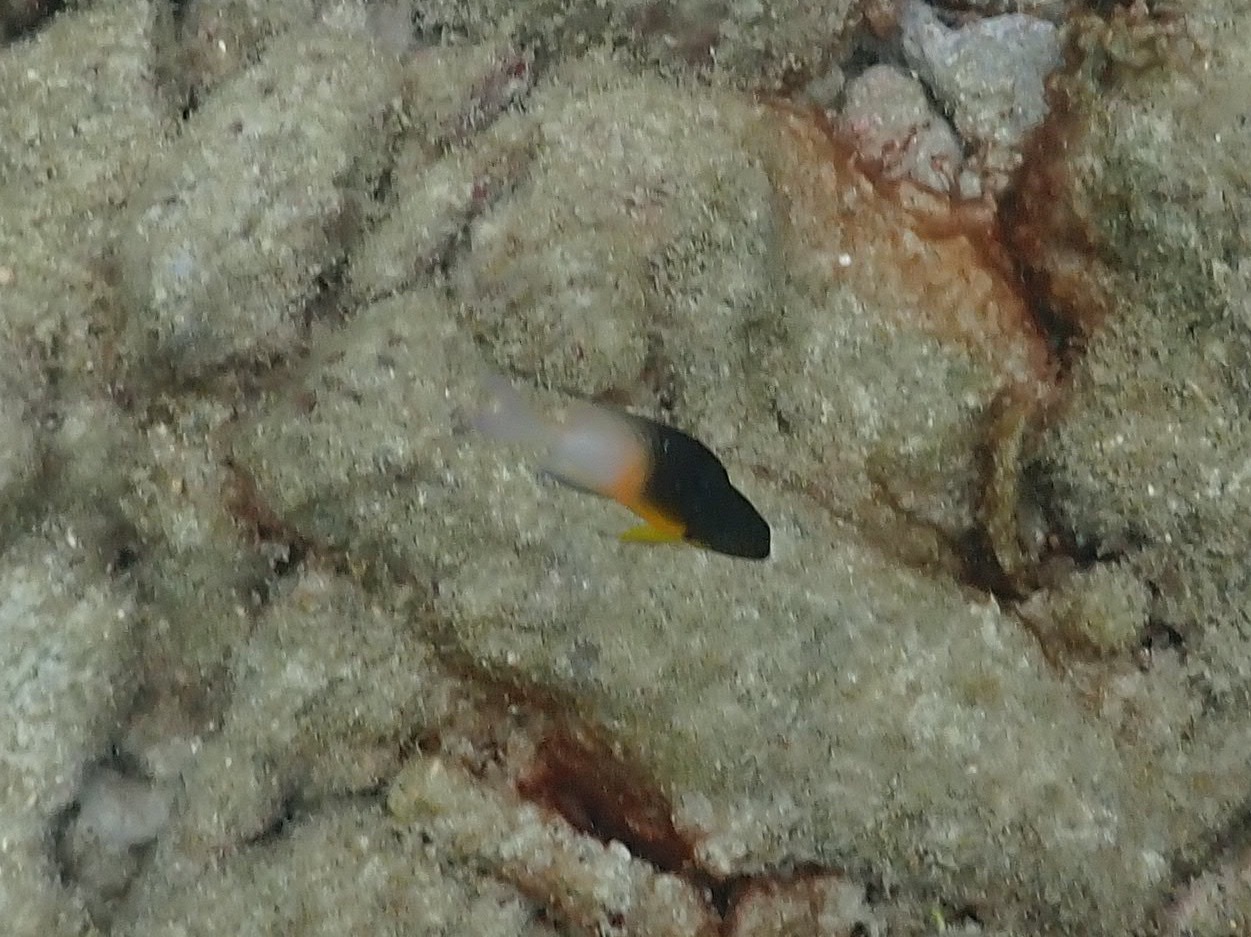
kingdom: Animalia
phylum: Chordata
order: Perciformes
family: Pomacentridae
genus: Stegastes
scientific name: Stegastes partitus
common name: Bicolor damselfish
